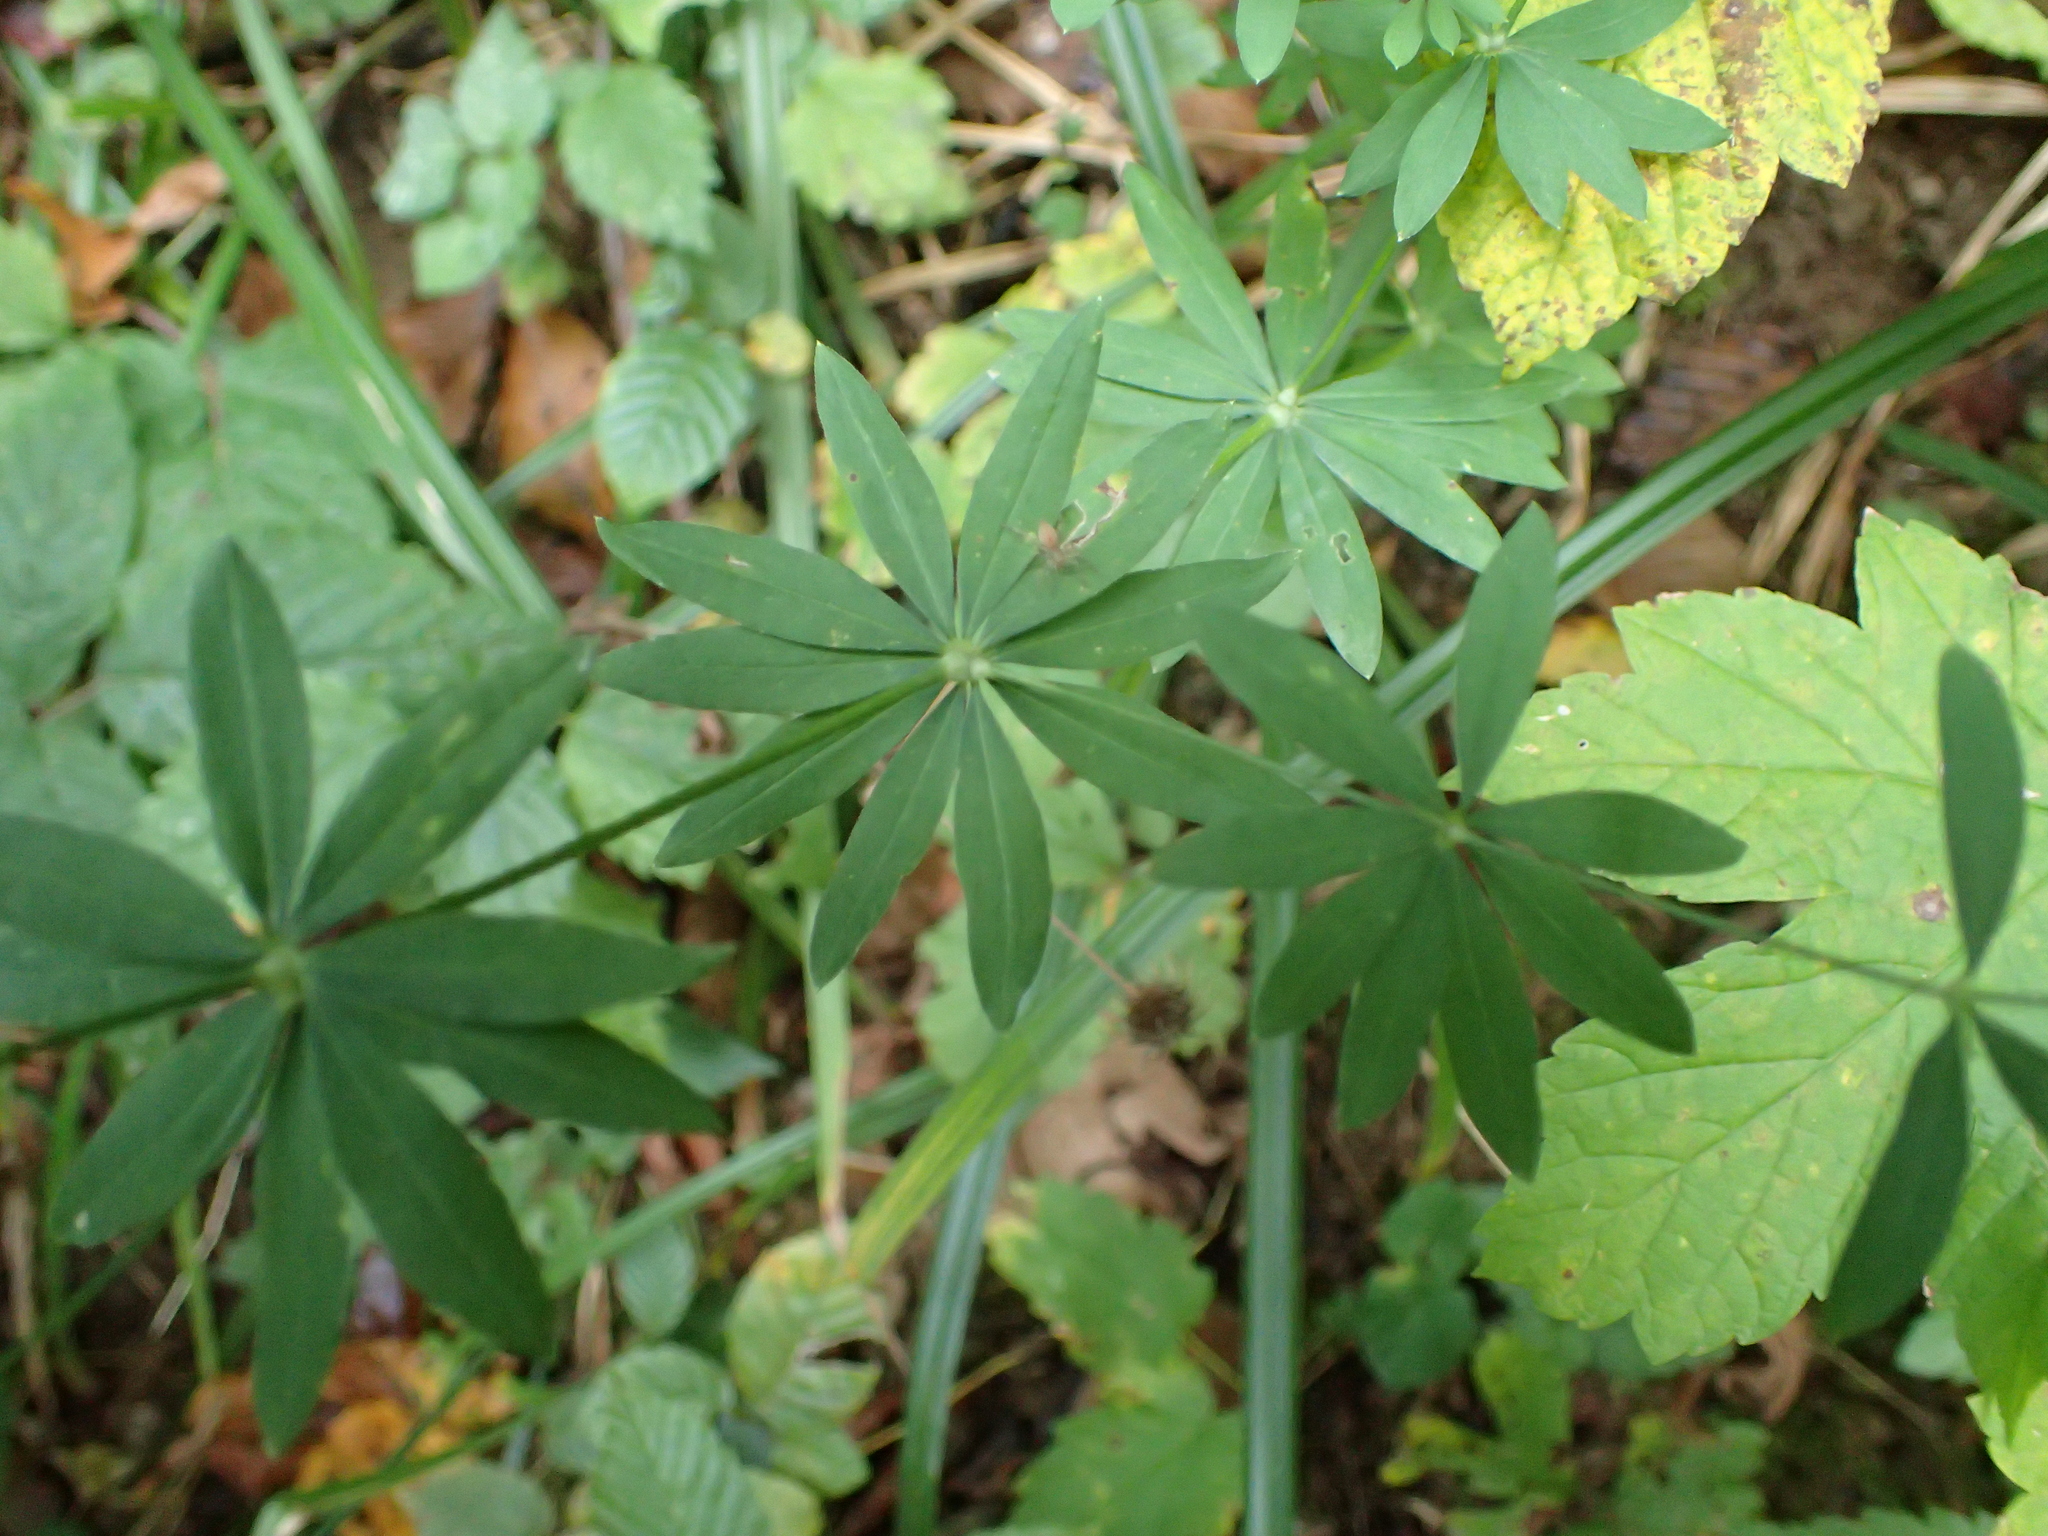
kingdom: Plantae
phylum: Tracheophyta
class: Magnoliopsida
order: Gentianales
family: Rubiaceae
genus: Galium
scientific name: Galium sylvaticum
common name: Wood bedstraw
